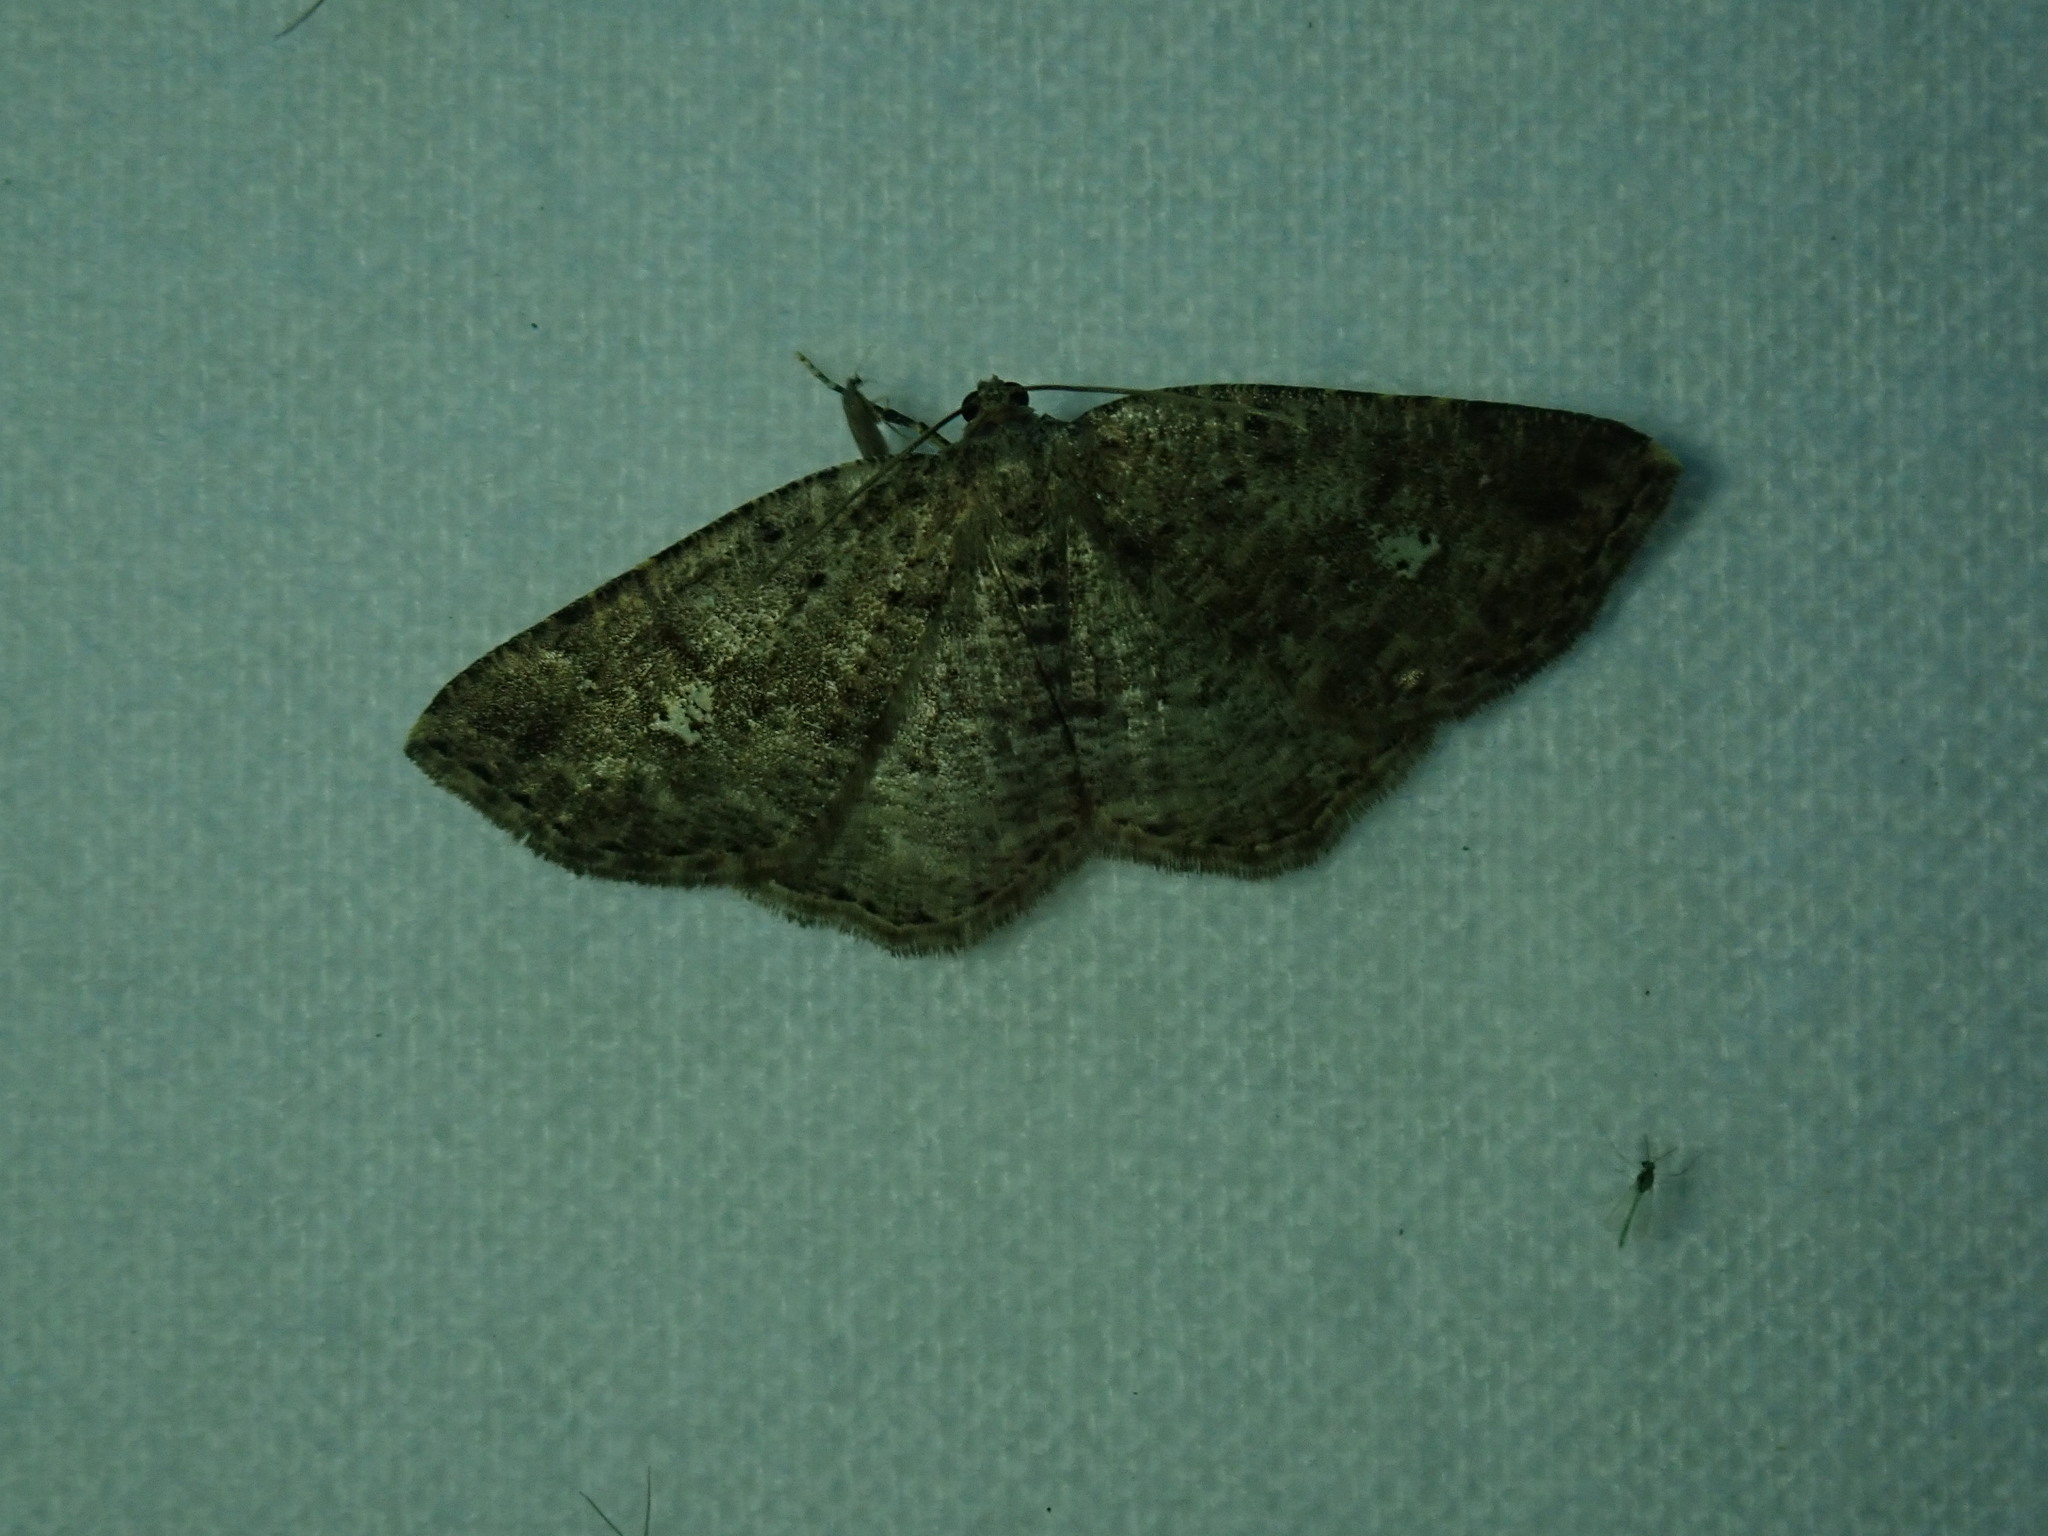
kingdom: Animalia
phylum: Arthropoda
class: Insecta
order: Lepidoptera
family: Geometridae
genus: Homochlodes
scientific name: Homochlodes fritillaria
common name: Pale homochlodes
